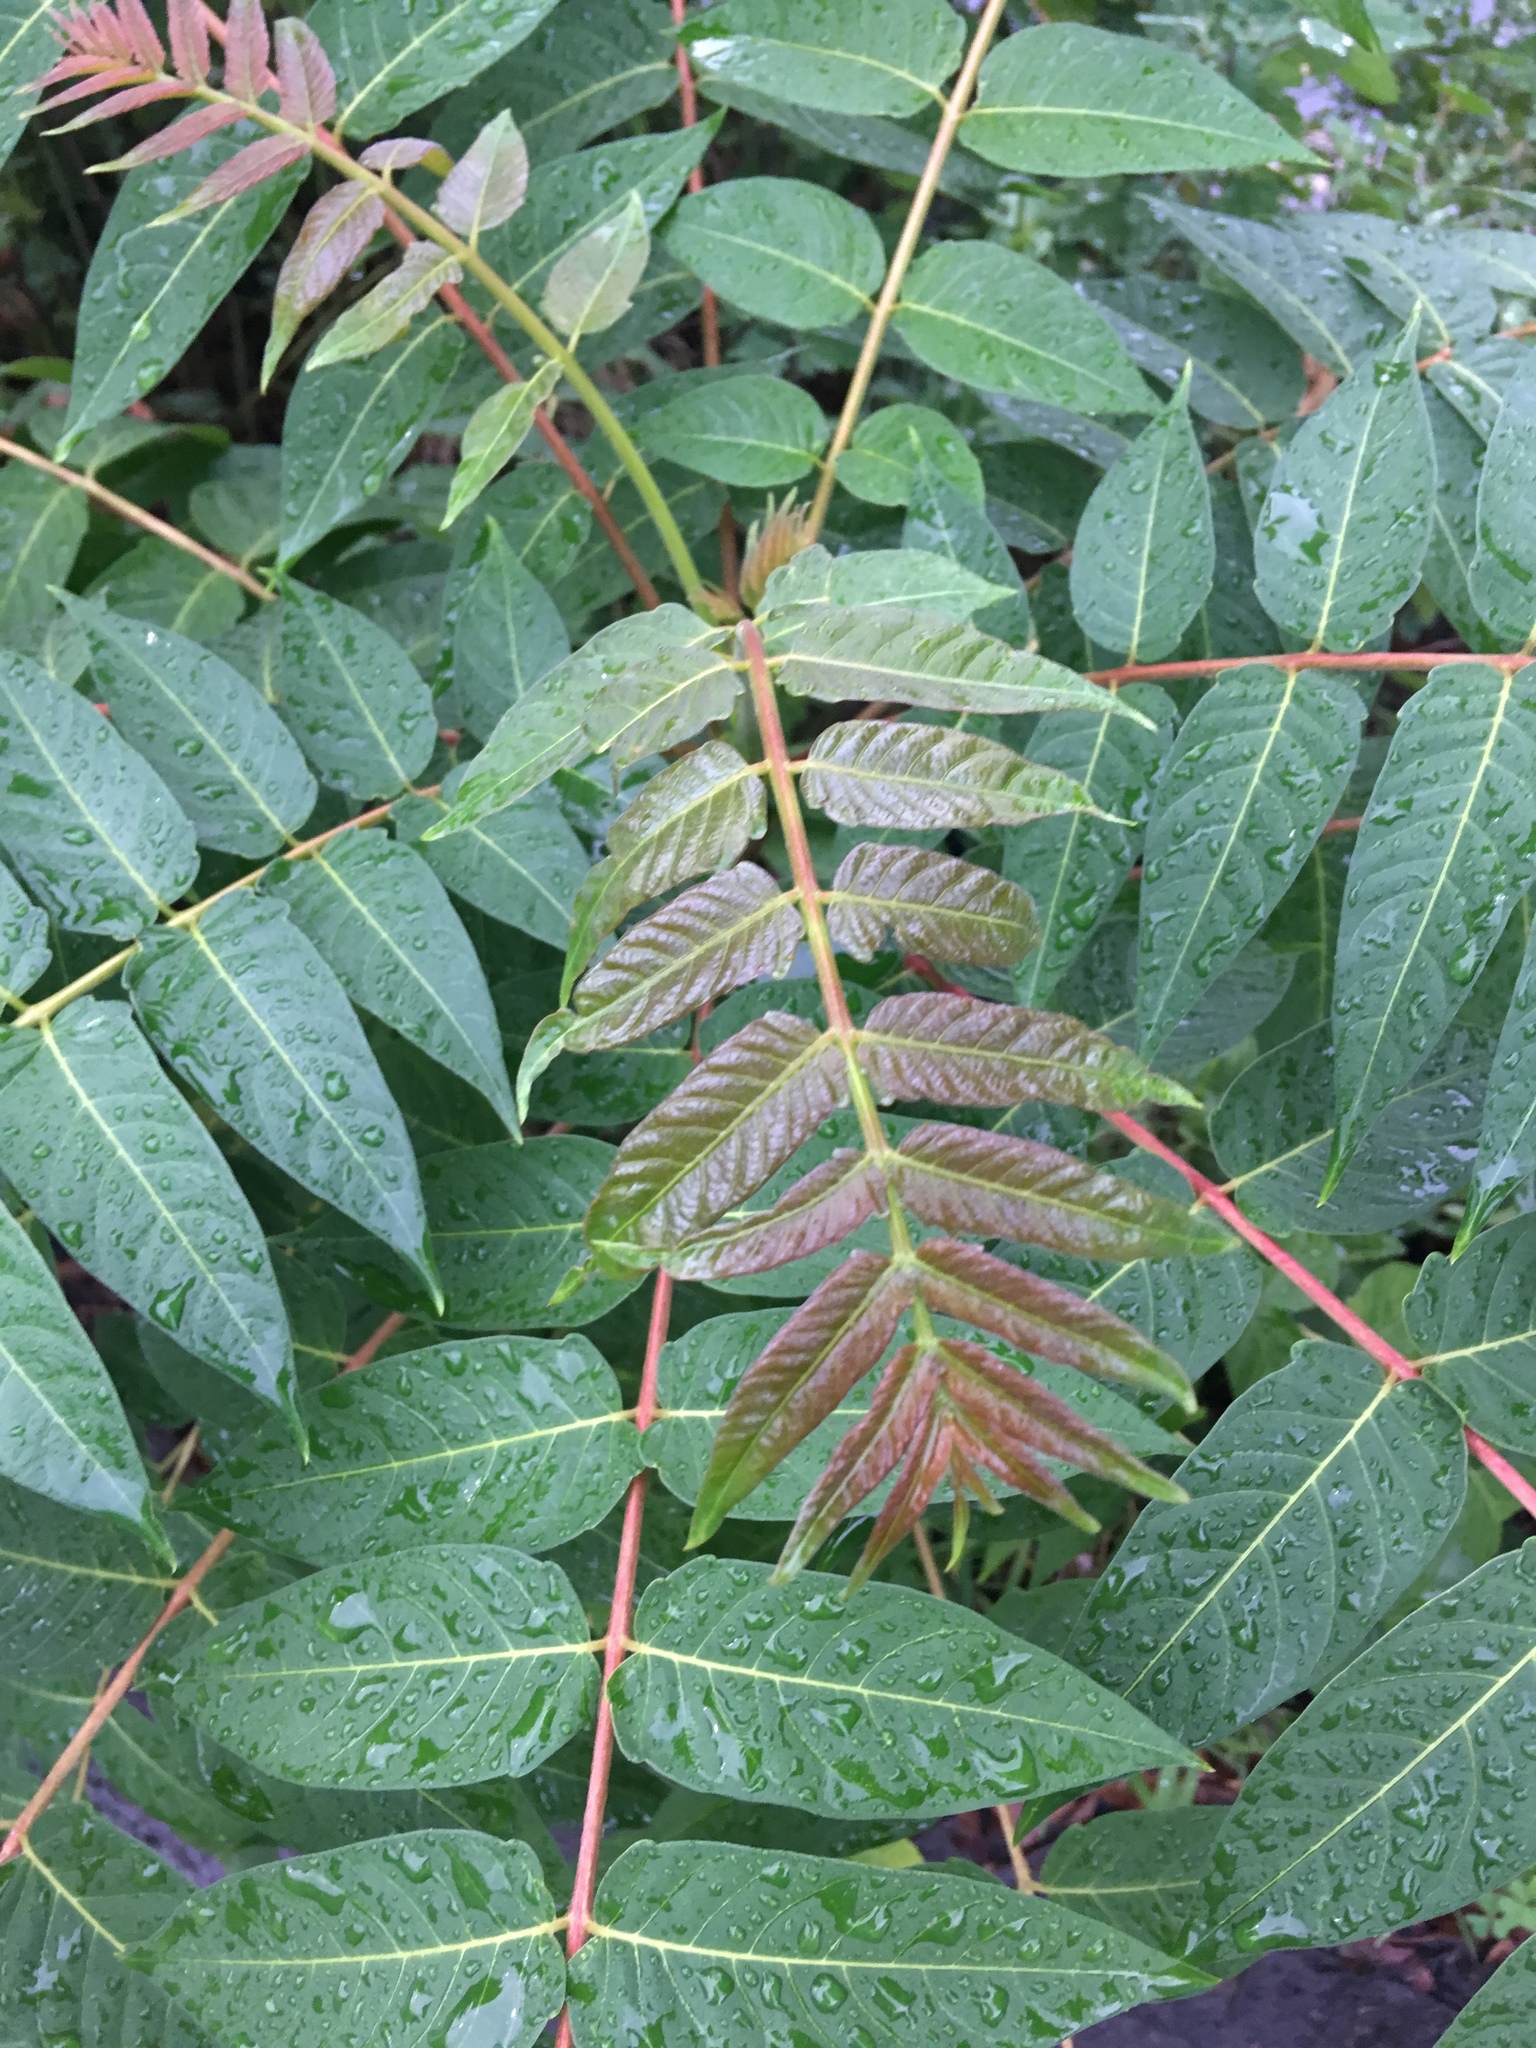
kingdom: Plantae
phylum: Tracheophyta
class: Magnoliopsida
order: Sapindales
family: Simaroubaceae
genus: Ailanthus
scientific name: Ailanthus altissima
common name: Tree-of-heaven
